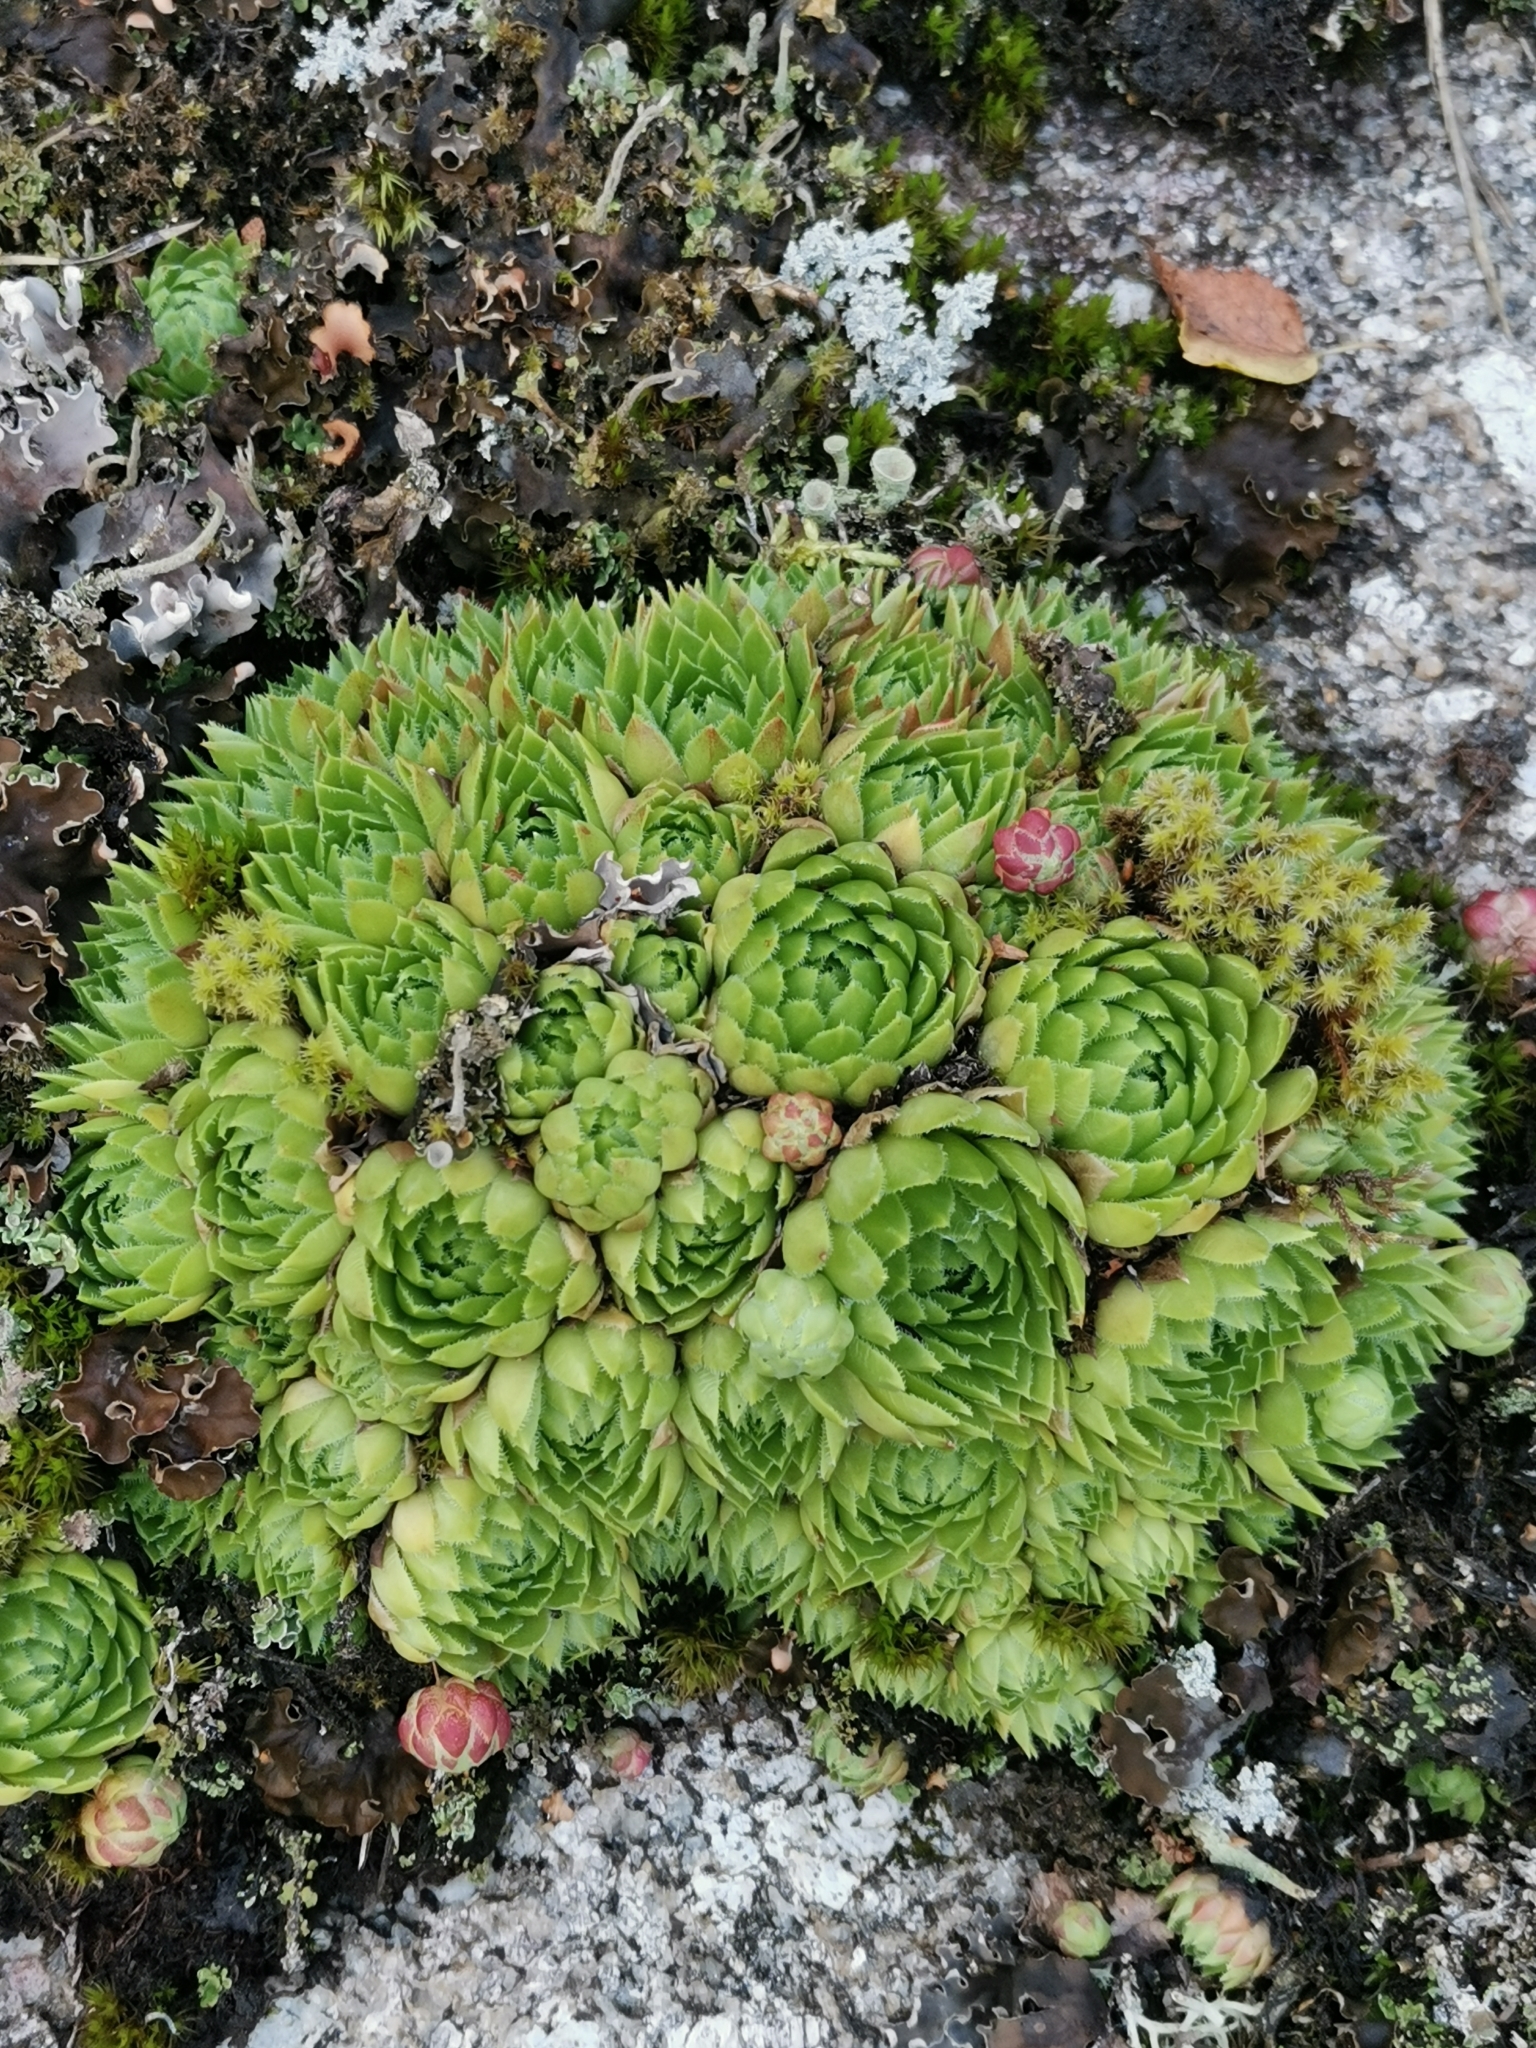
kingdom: Plantae
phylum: Tracheophyta
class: Magnoliopsida
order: Saxifragales
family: Crassulaceae
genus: Sempervivum
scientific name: Sempervivum globiferum
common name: Rolling hen-and-chicks
